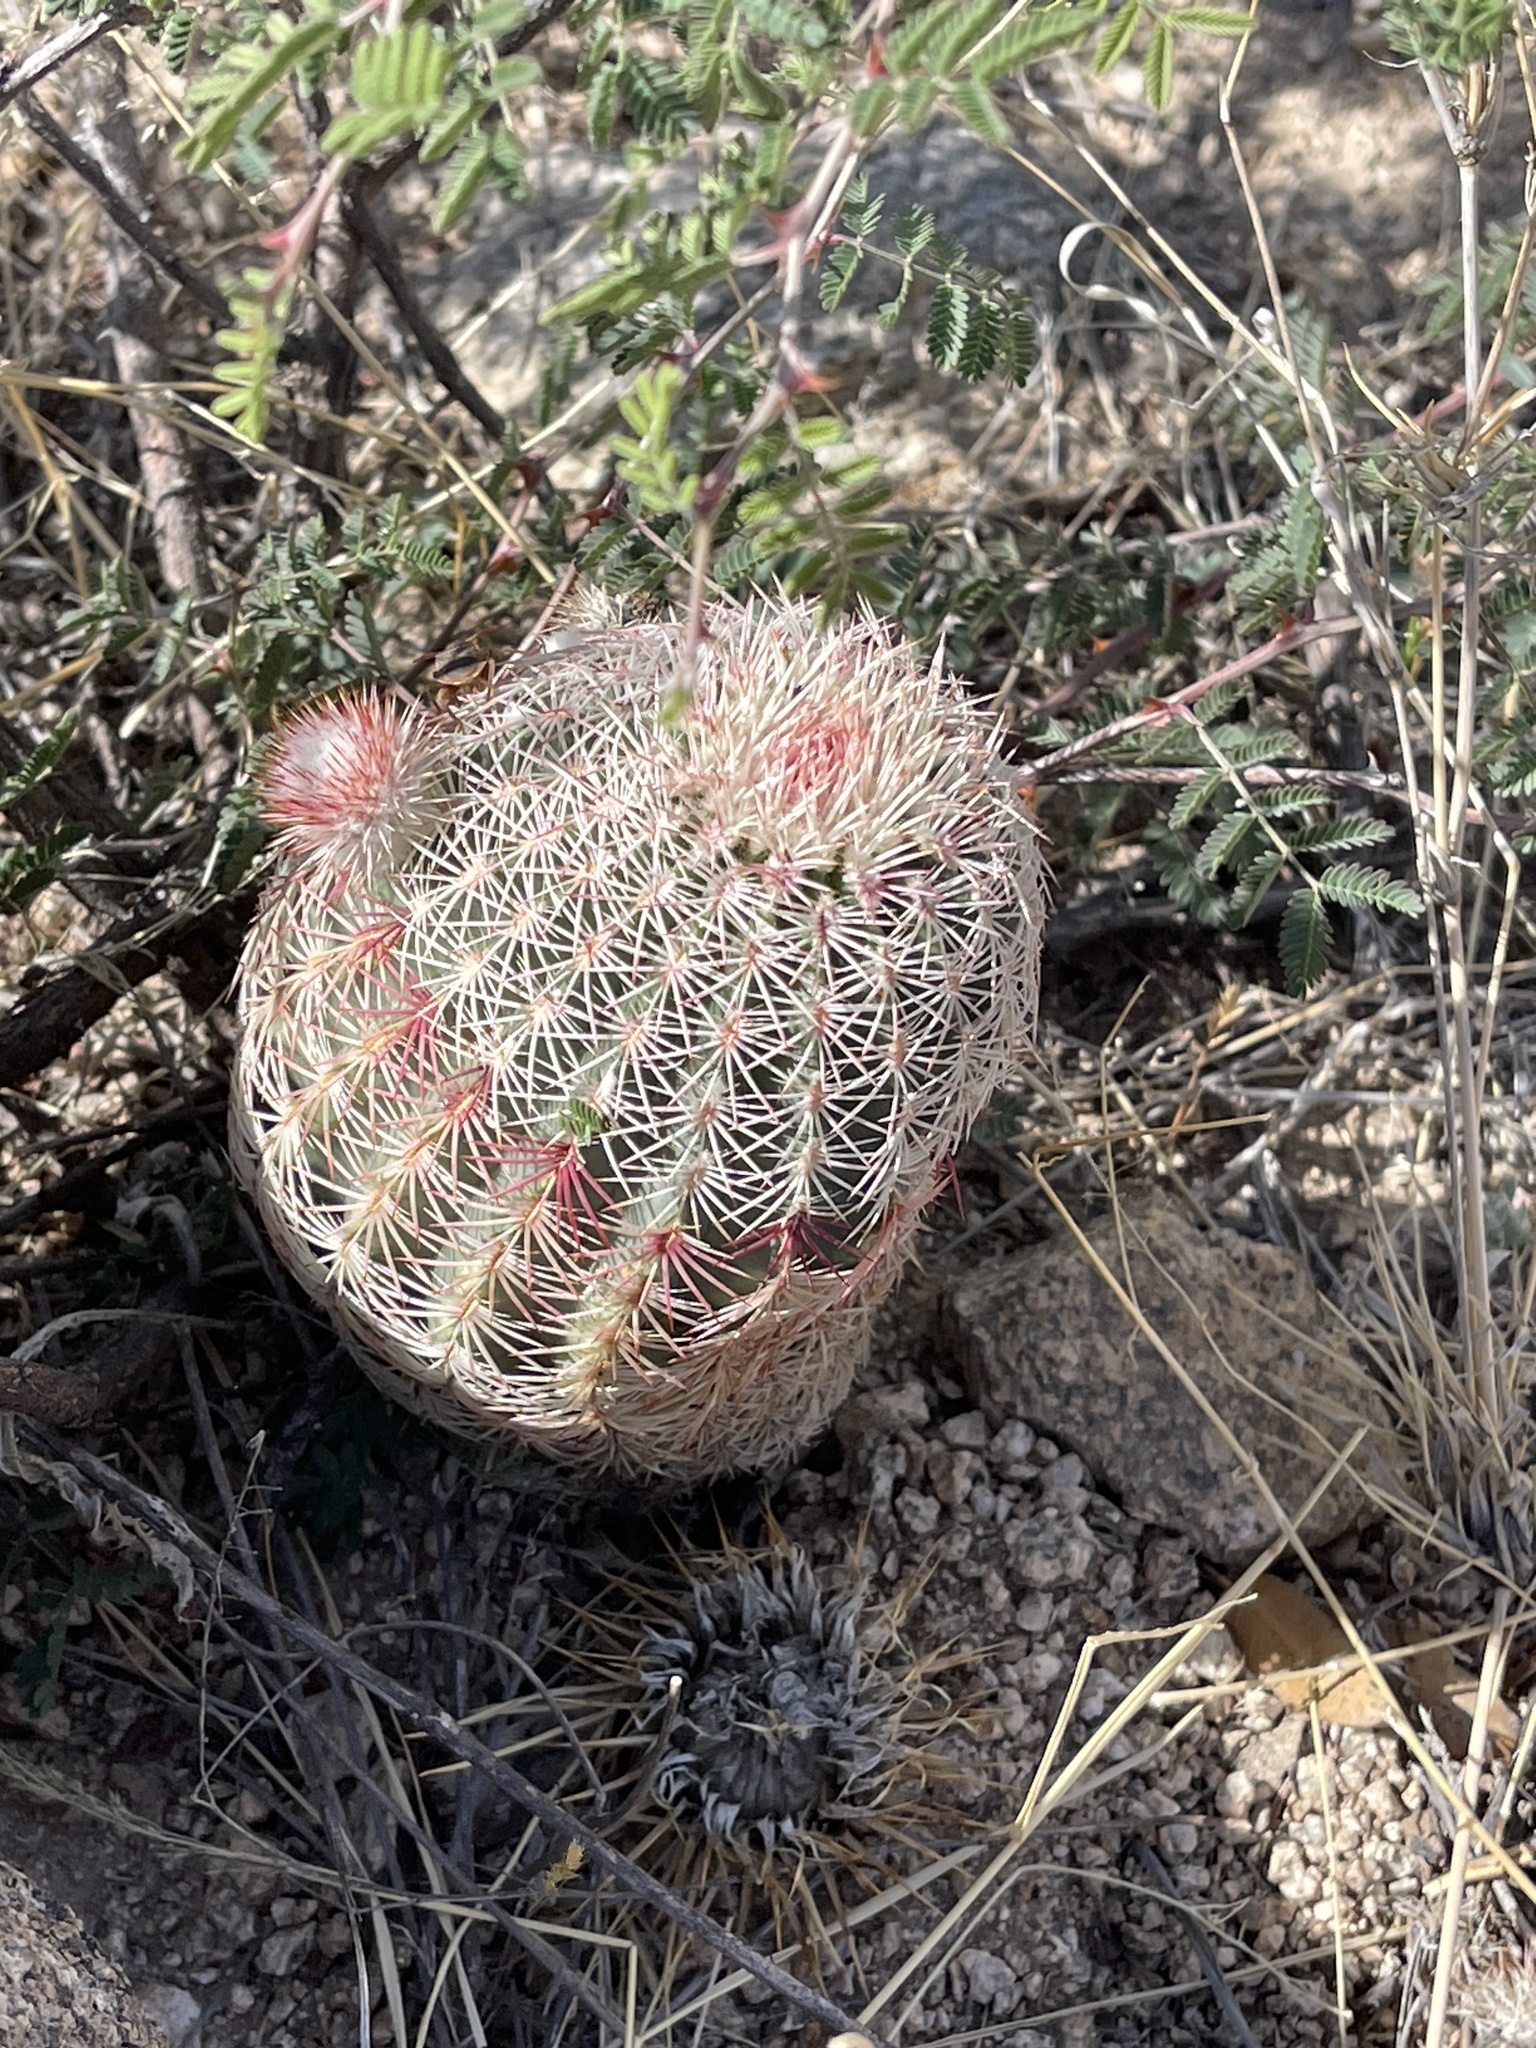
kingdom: Plantae
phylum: Tracheophyta
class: Magnoliopsida
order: Caryophyllales
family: Cactaceae
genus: Echinocereus
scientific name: Echinocereus rigidissimus
